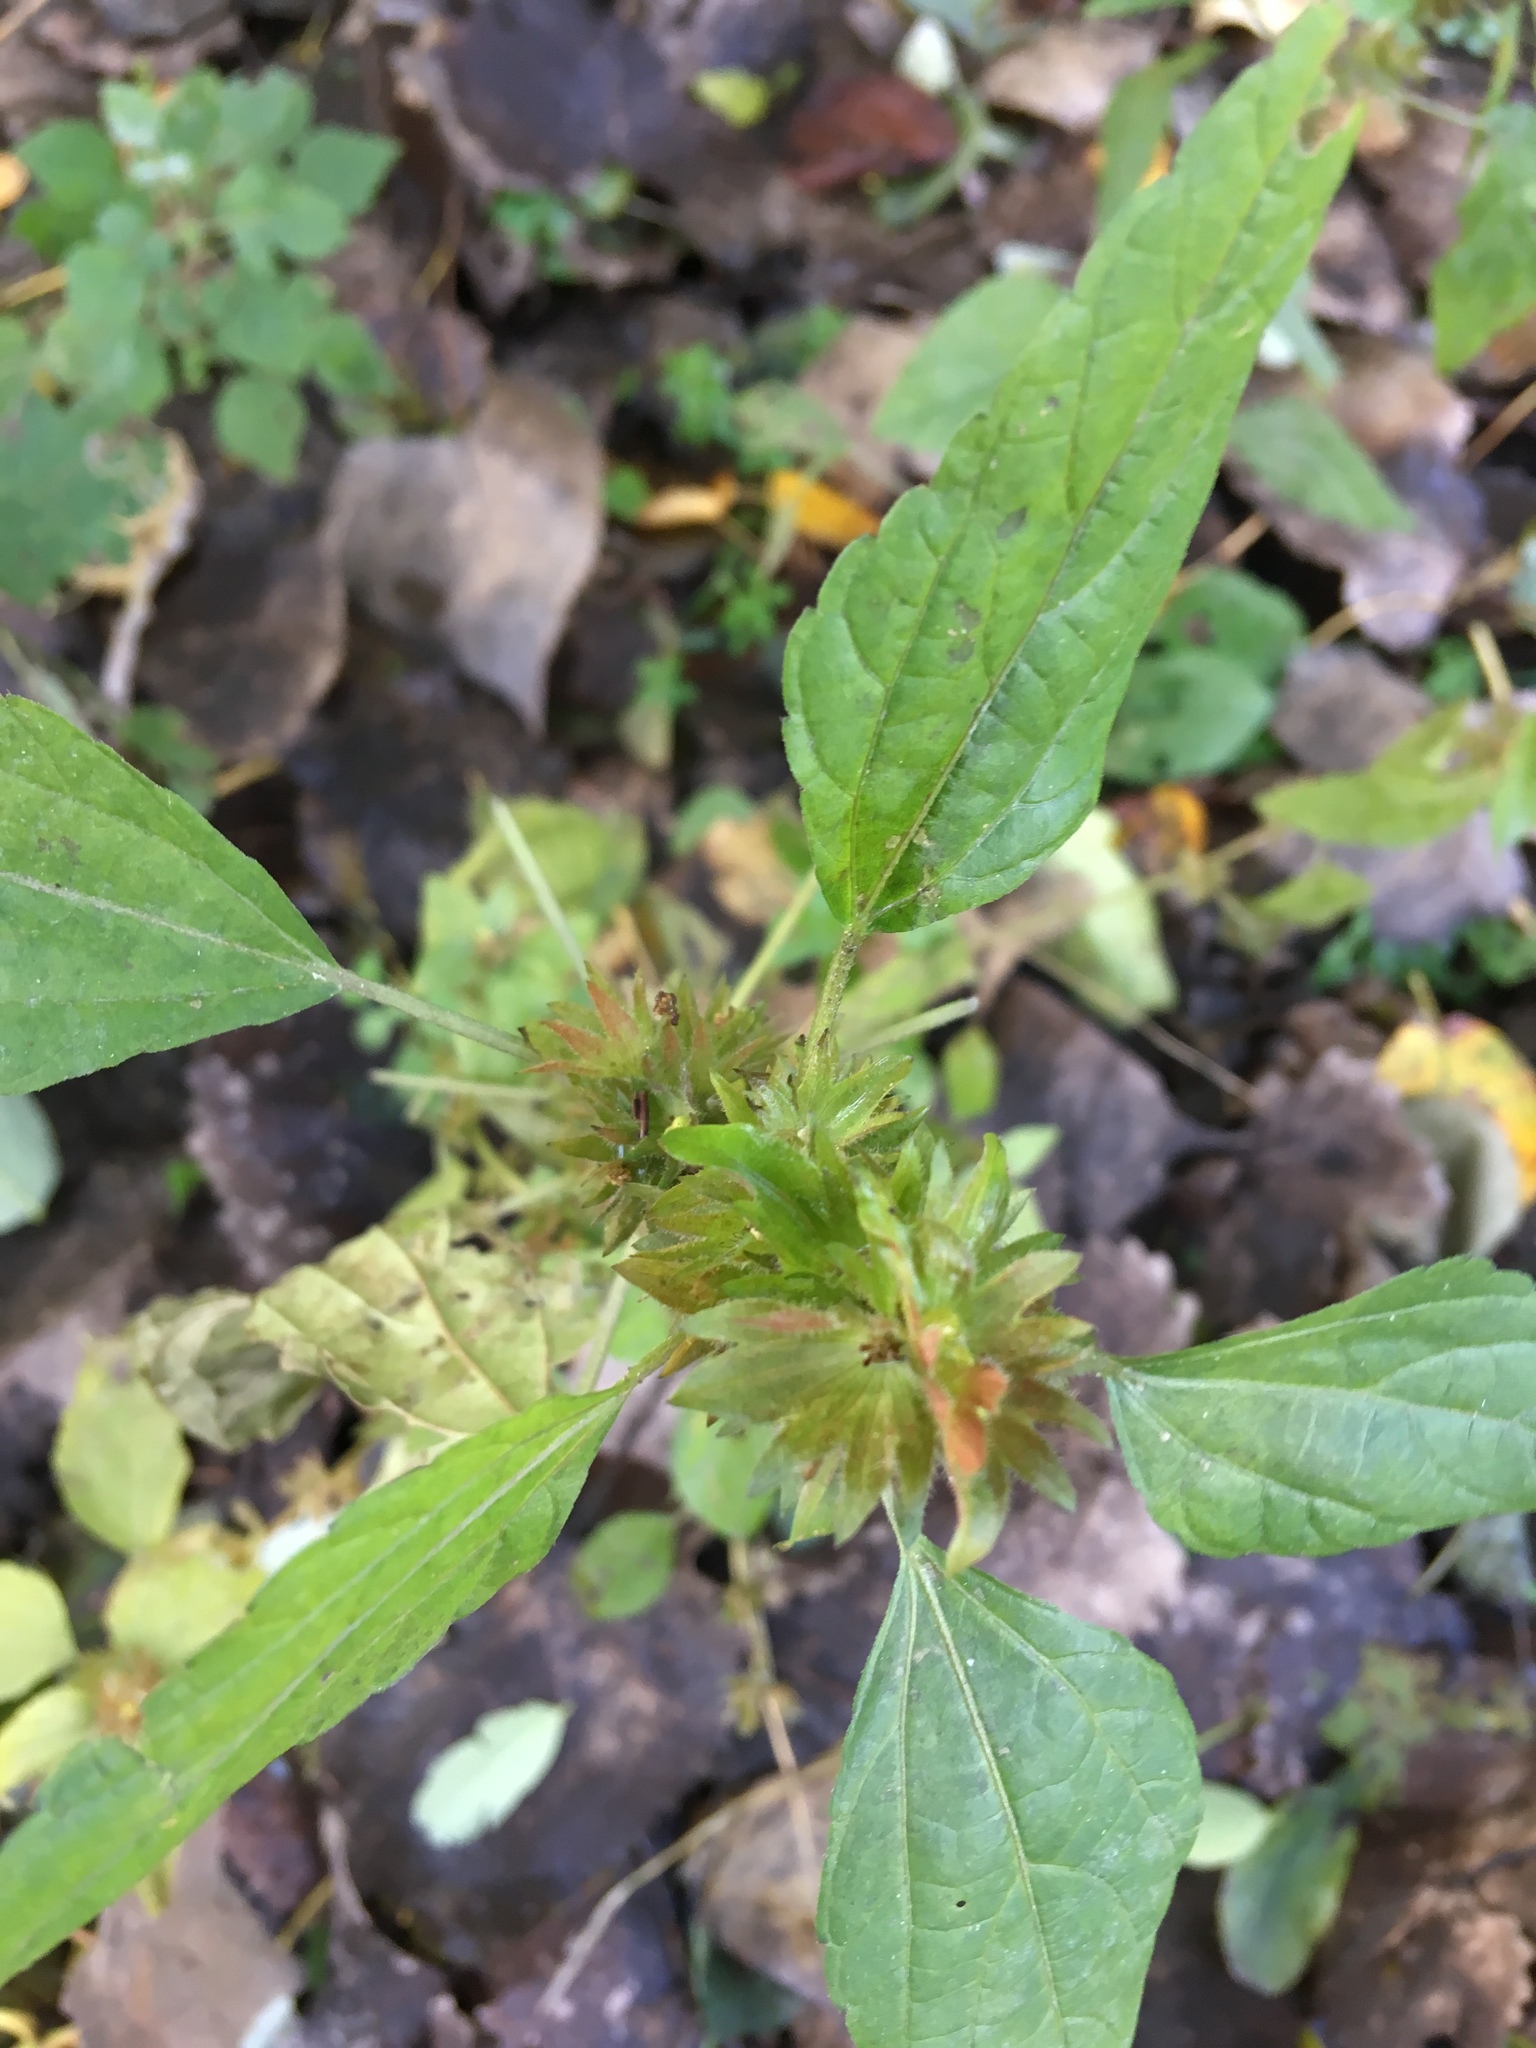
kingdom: Plantae
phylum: Tracheophyta
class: Magnoliopsida
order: Malpighiales
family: Euphorbiaceae
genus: Acalypha
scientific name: Acalypha rhomboidea
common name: Rhombic copperleaf
